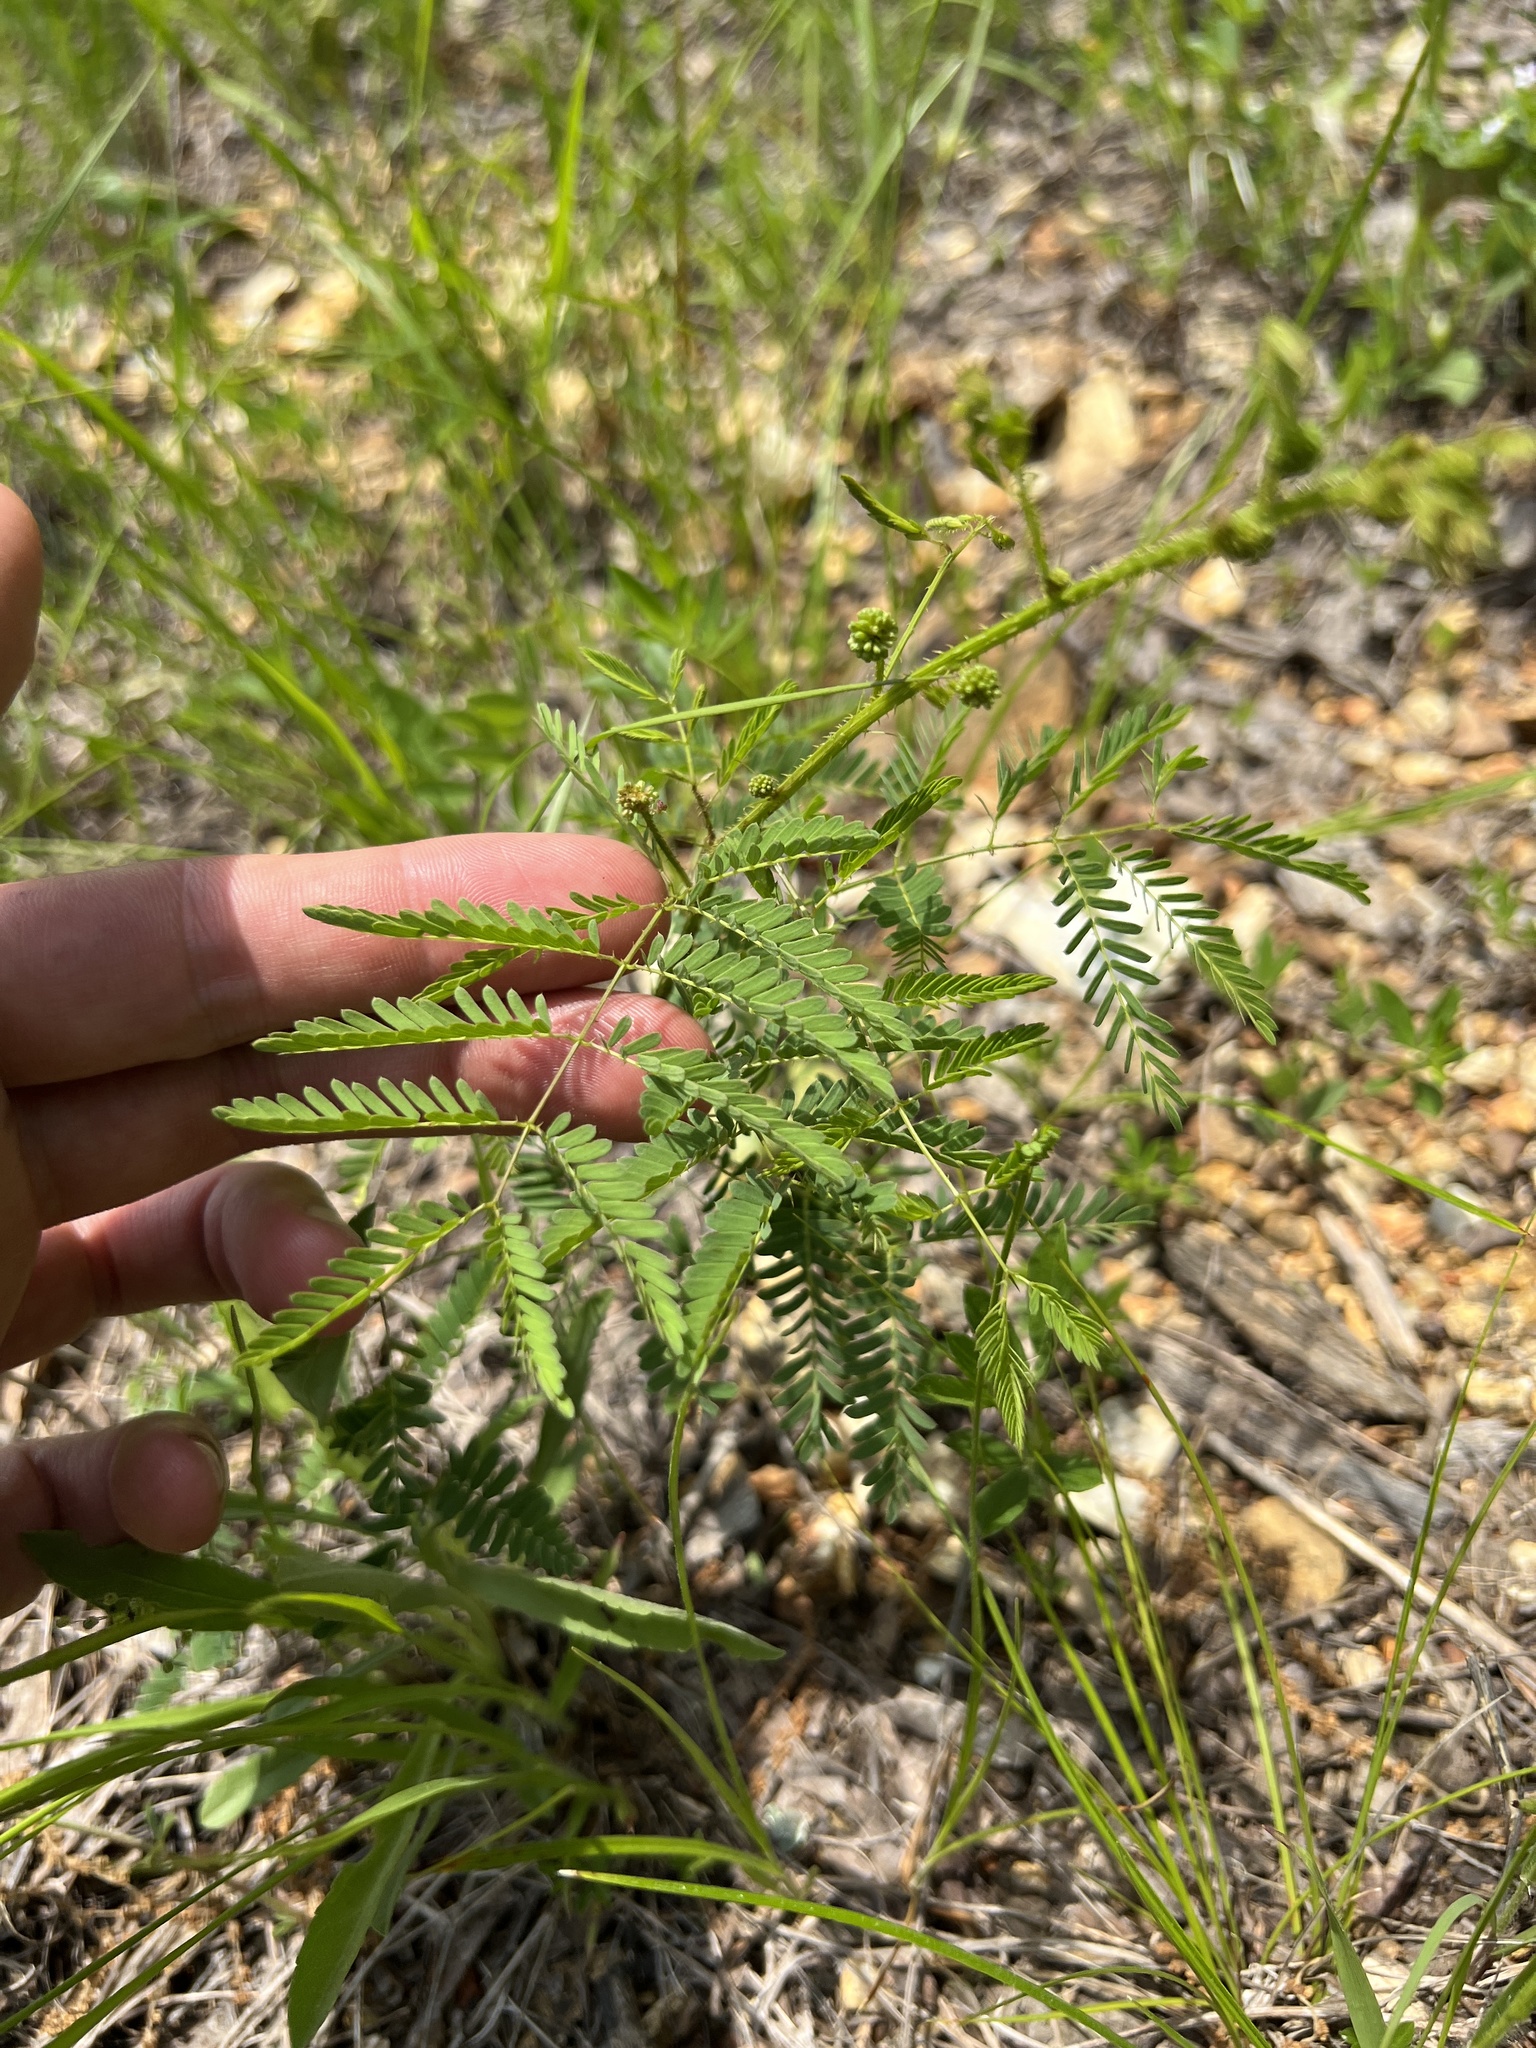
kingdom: Plantae
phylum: Tracheophyta
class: Magnoliopsida
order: Fabales
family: Fabaceae
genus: Mimosa
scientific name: Mimosa quadrivalvis
